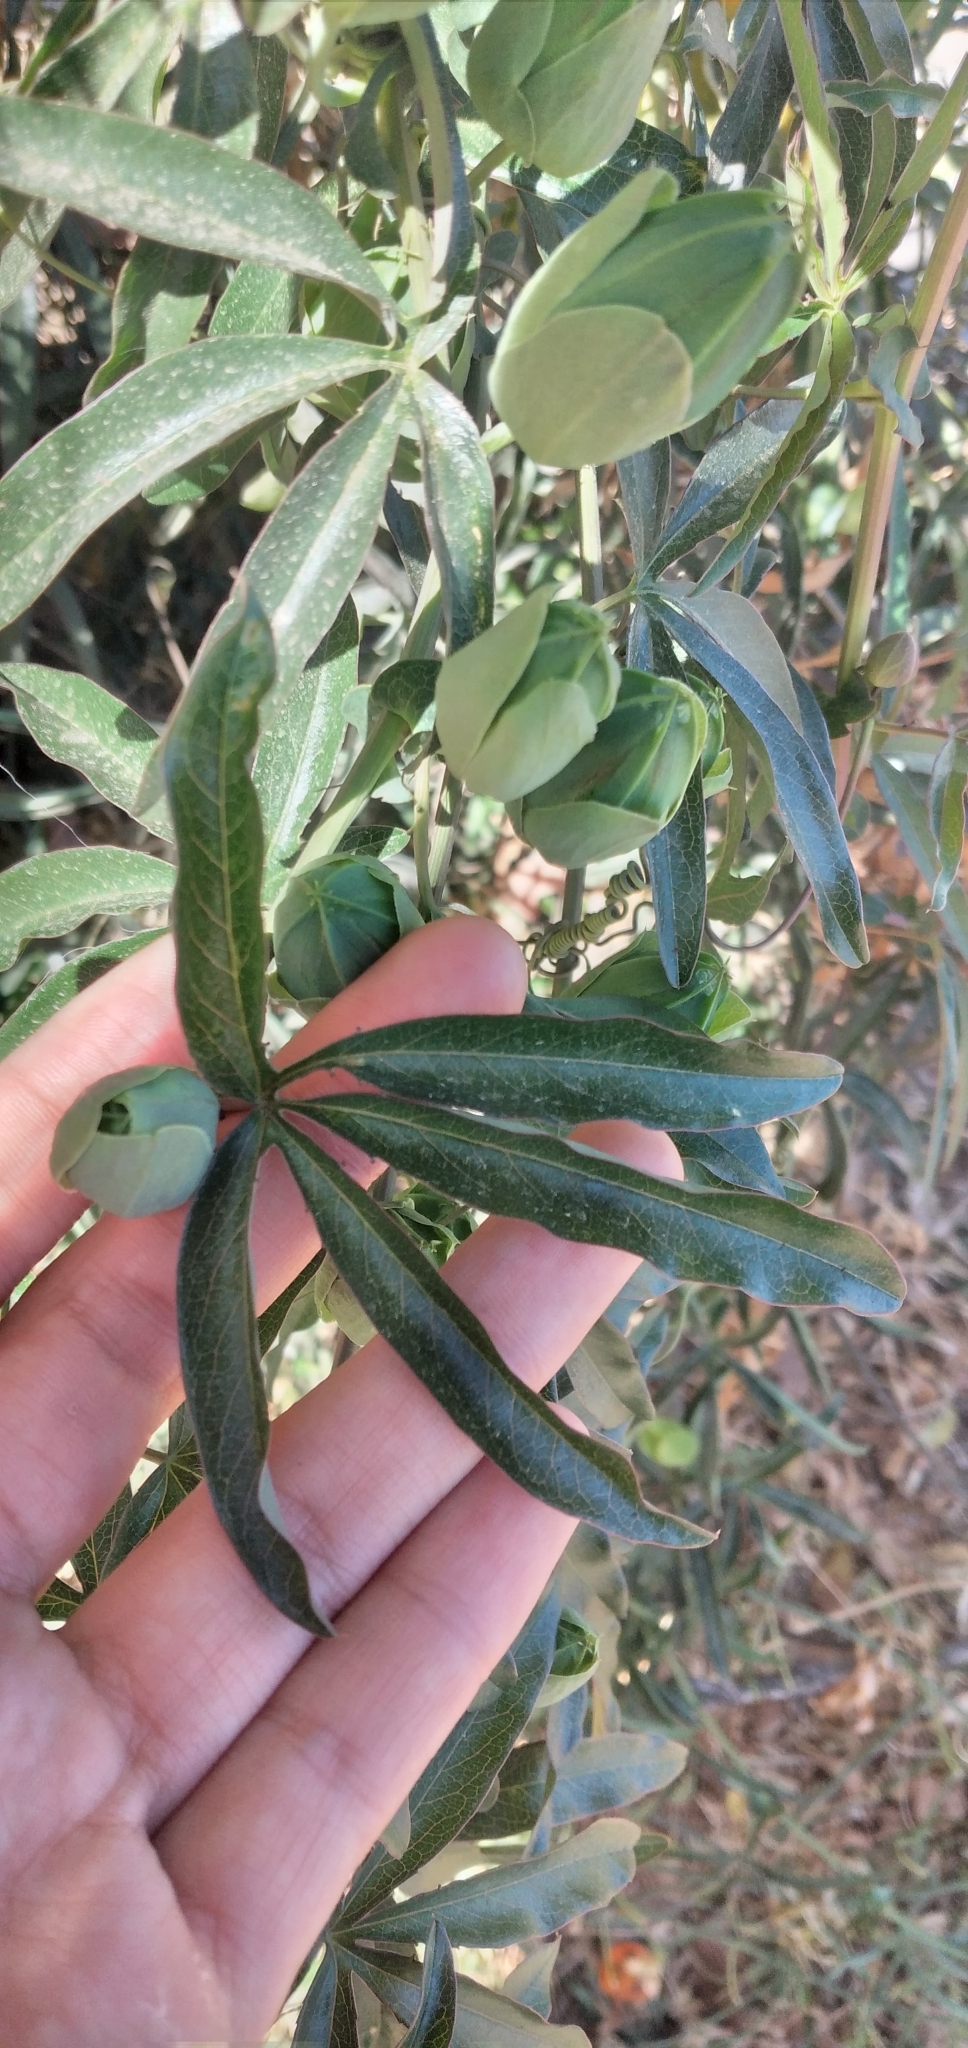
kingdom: Plantae
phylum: Tracheophyta
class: Magnoliopsida
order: Malpighiales
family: Passifloraceae
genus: Passiflora
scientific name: Passiflora caerulea
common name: Blue passionflower
